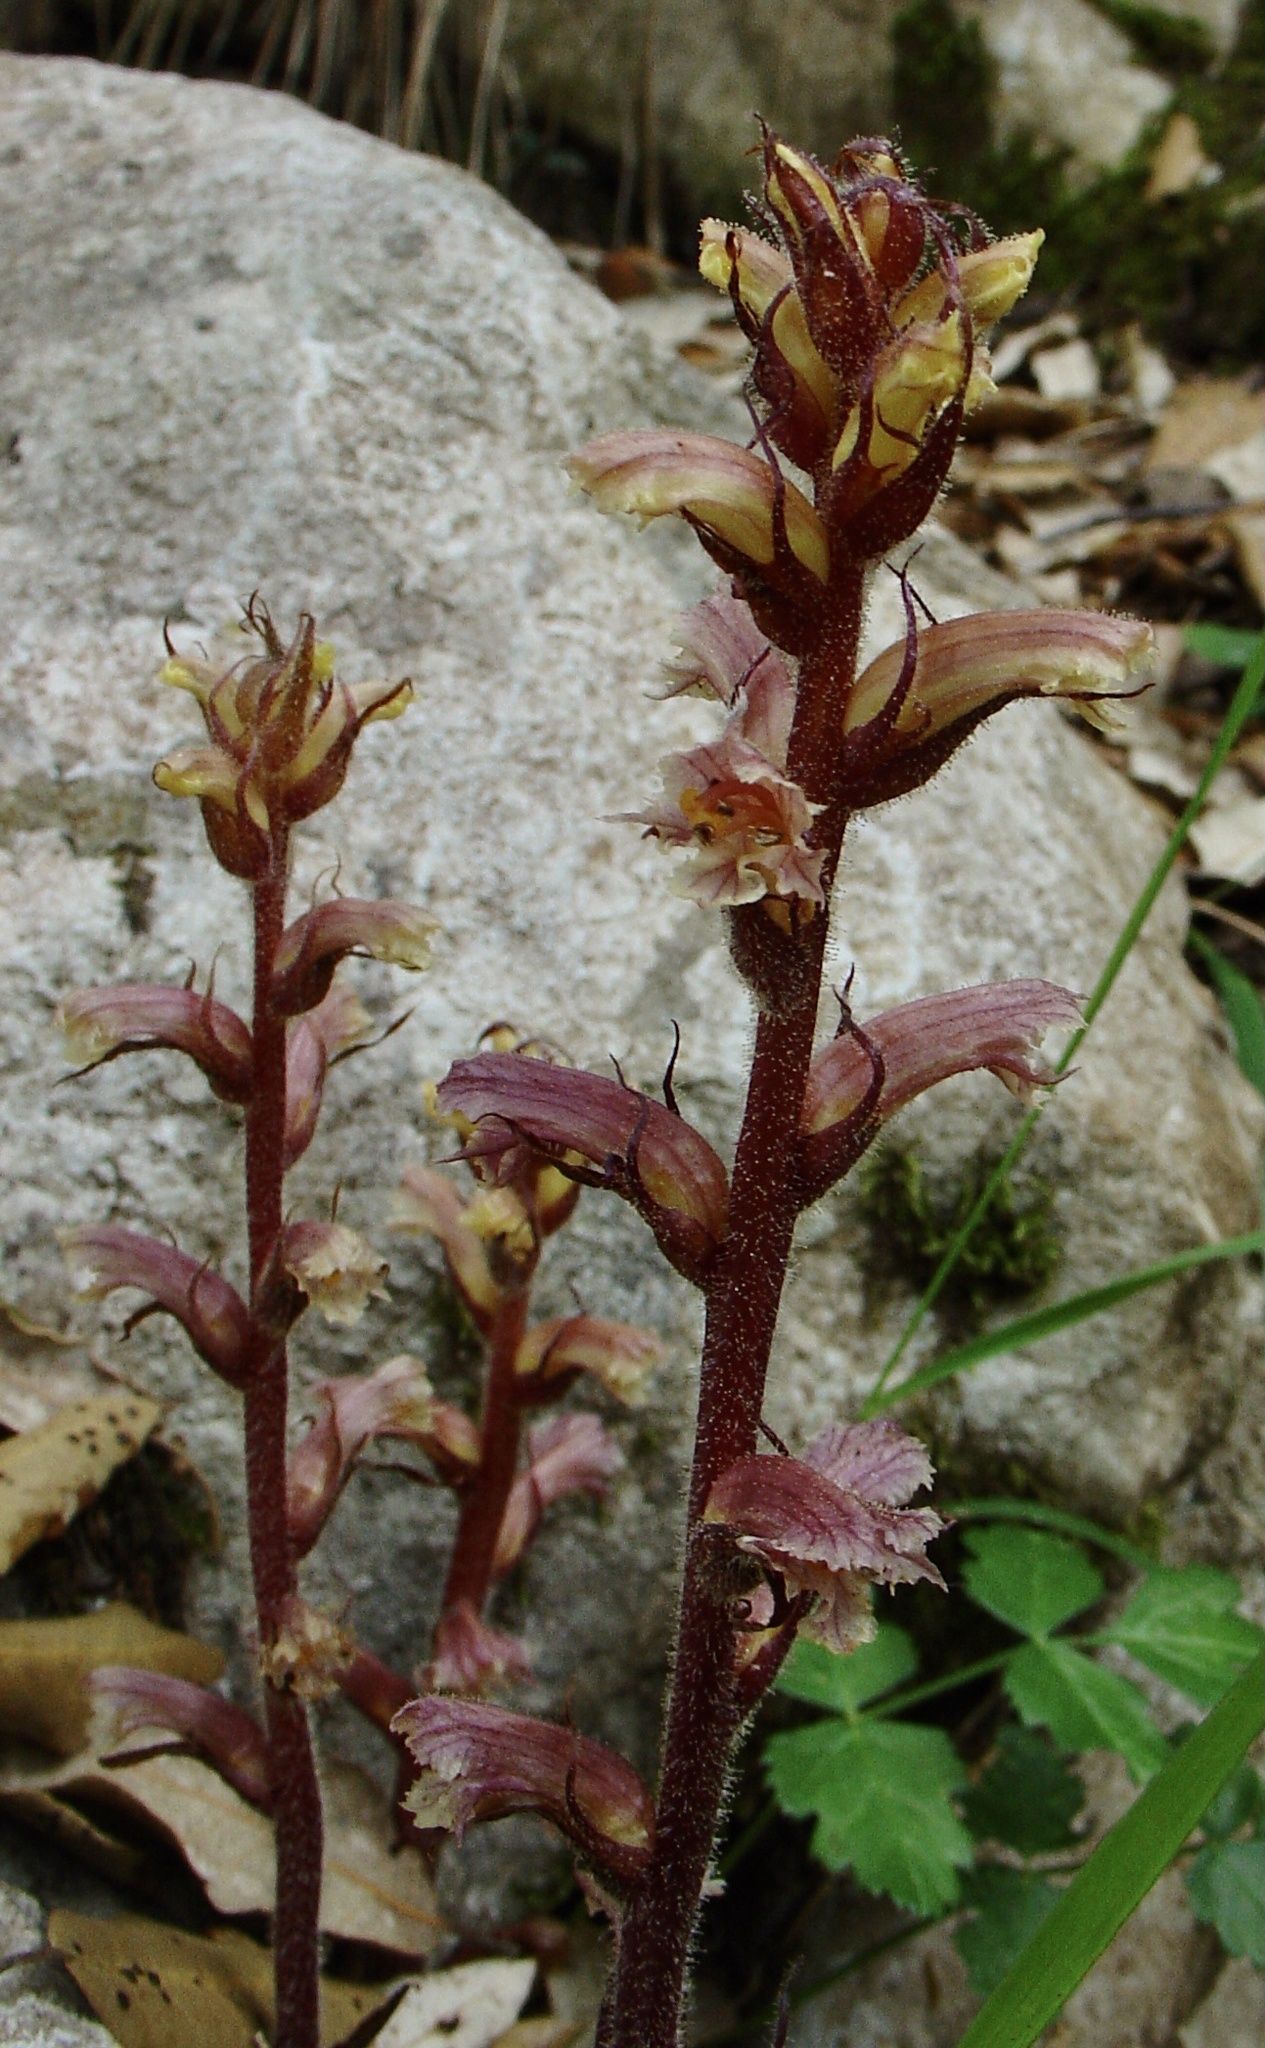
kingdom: Plantae
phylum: Tracheophyta
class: Magnoliopsida
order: Lamiales
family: Orobanchaceae
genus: Orobanche
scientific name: Orobanche hederae
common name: Ivy broomrape
